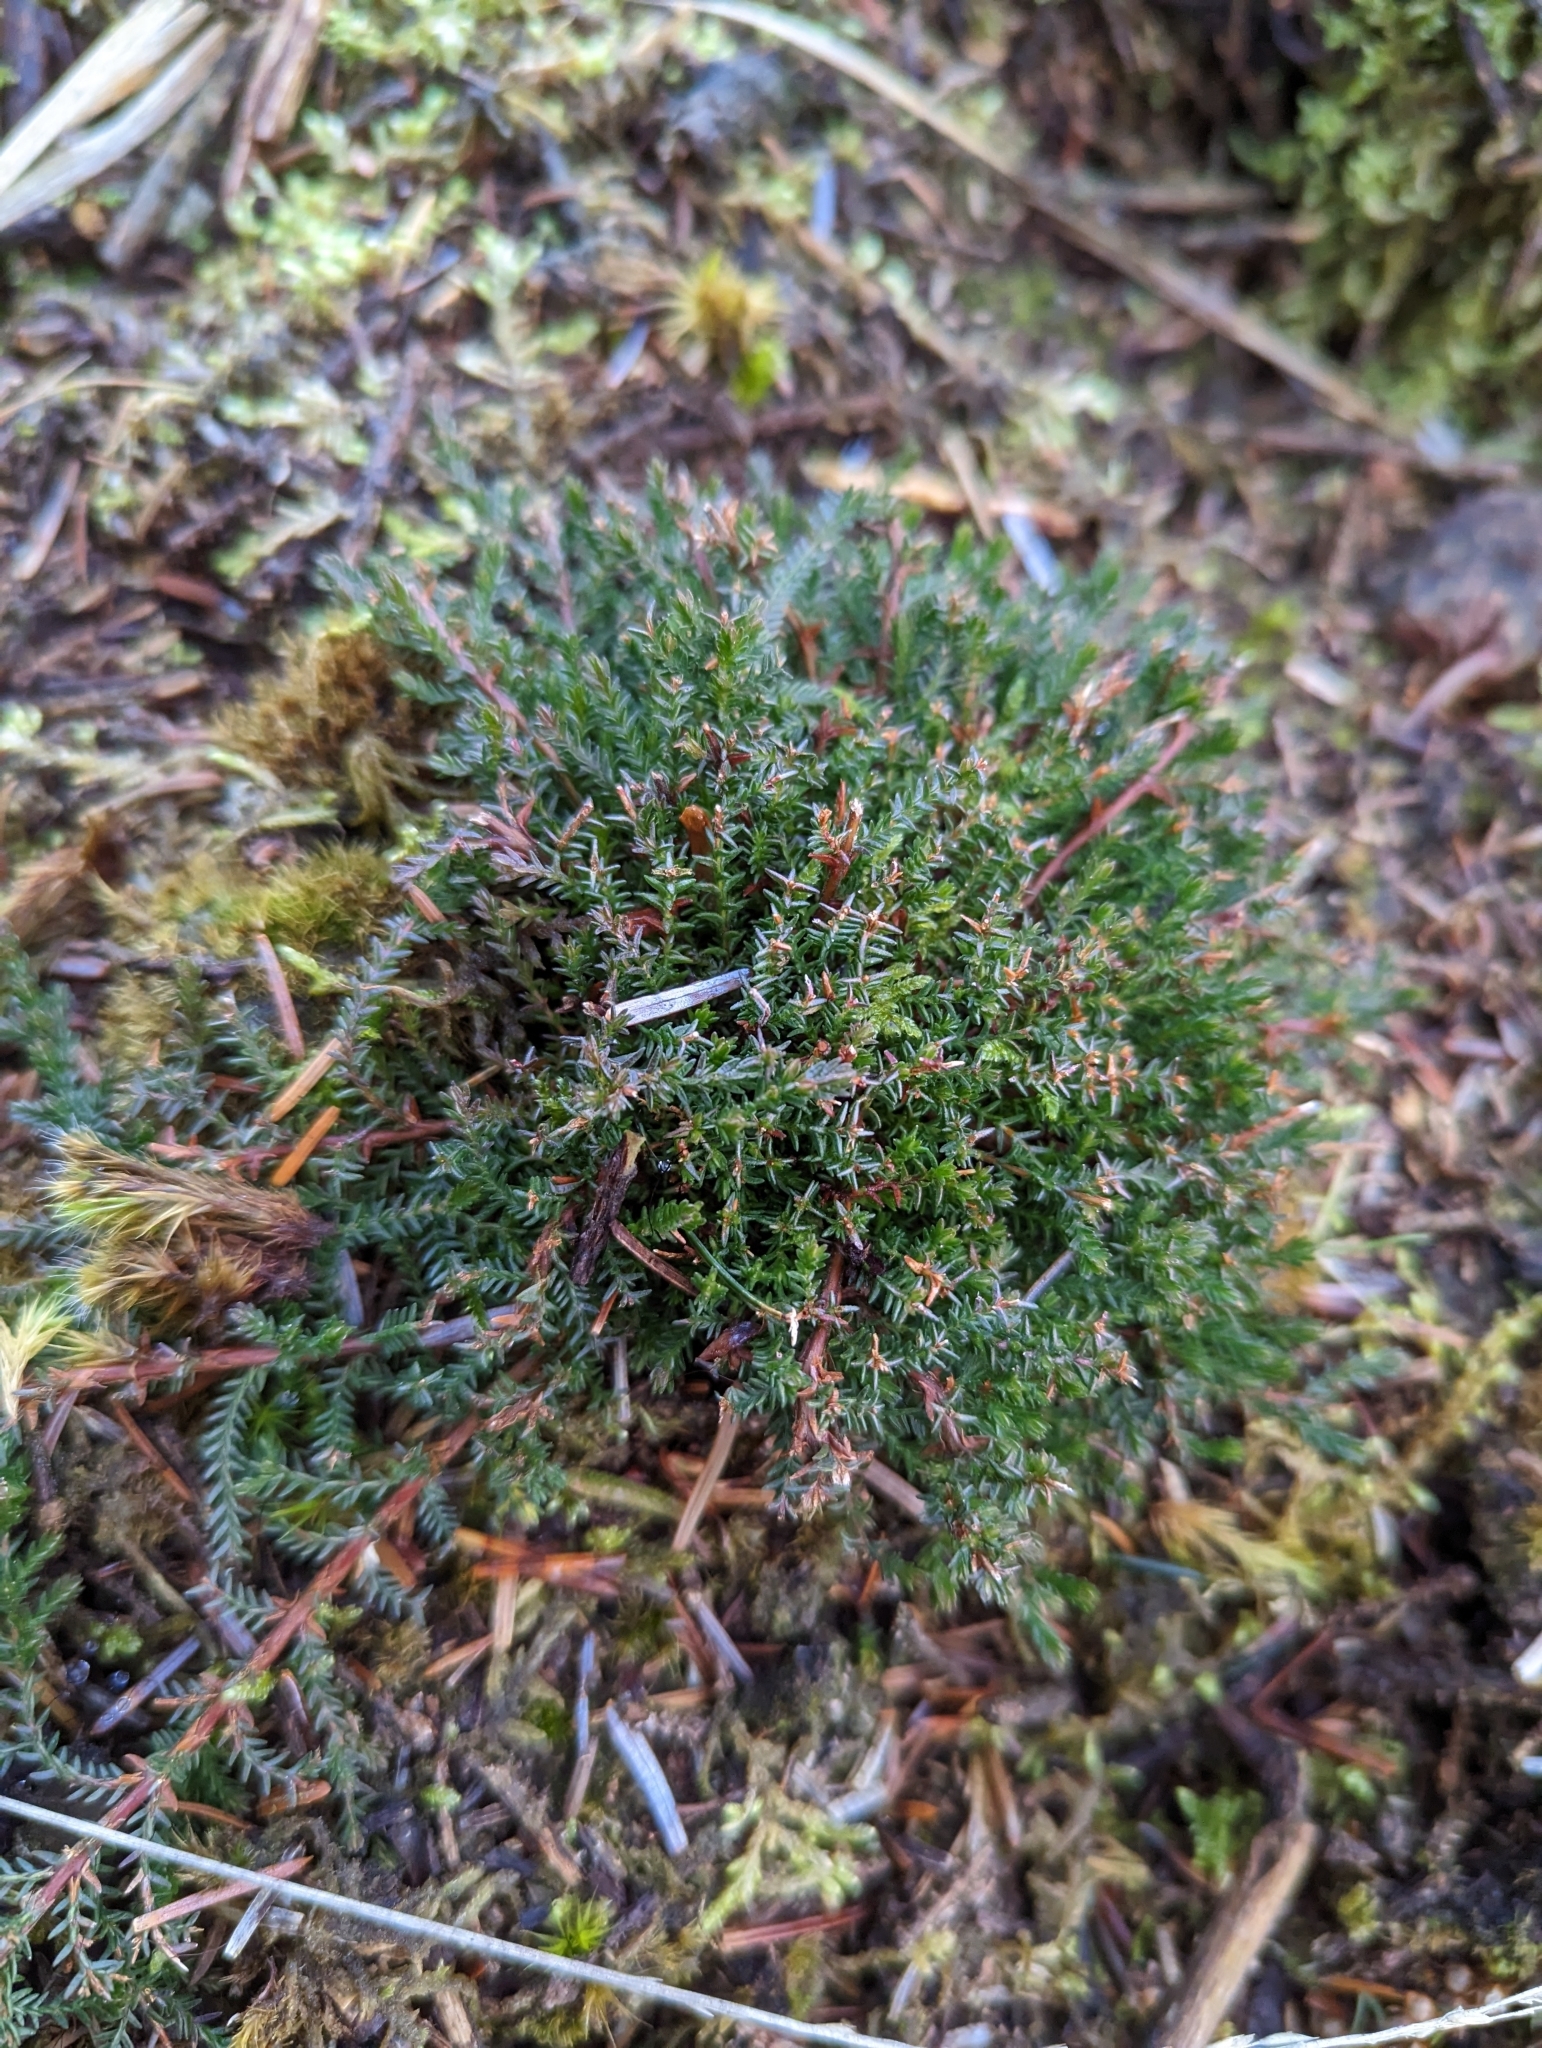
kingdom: Plantae
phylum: Tracheophyta
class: Magnoliopsida
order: Ericales
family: Ericaceae
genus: Erica
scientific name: Erica cinerea
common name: Bell heather
